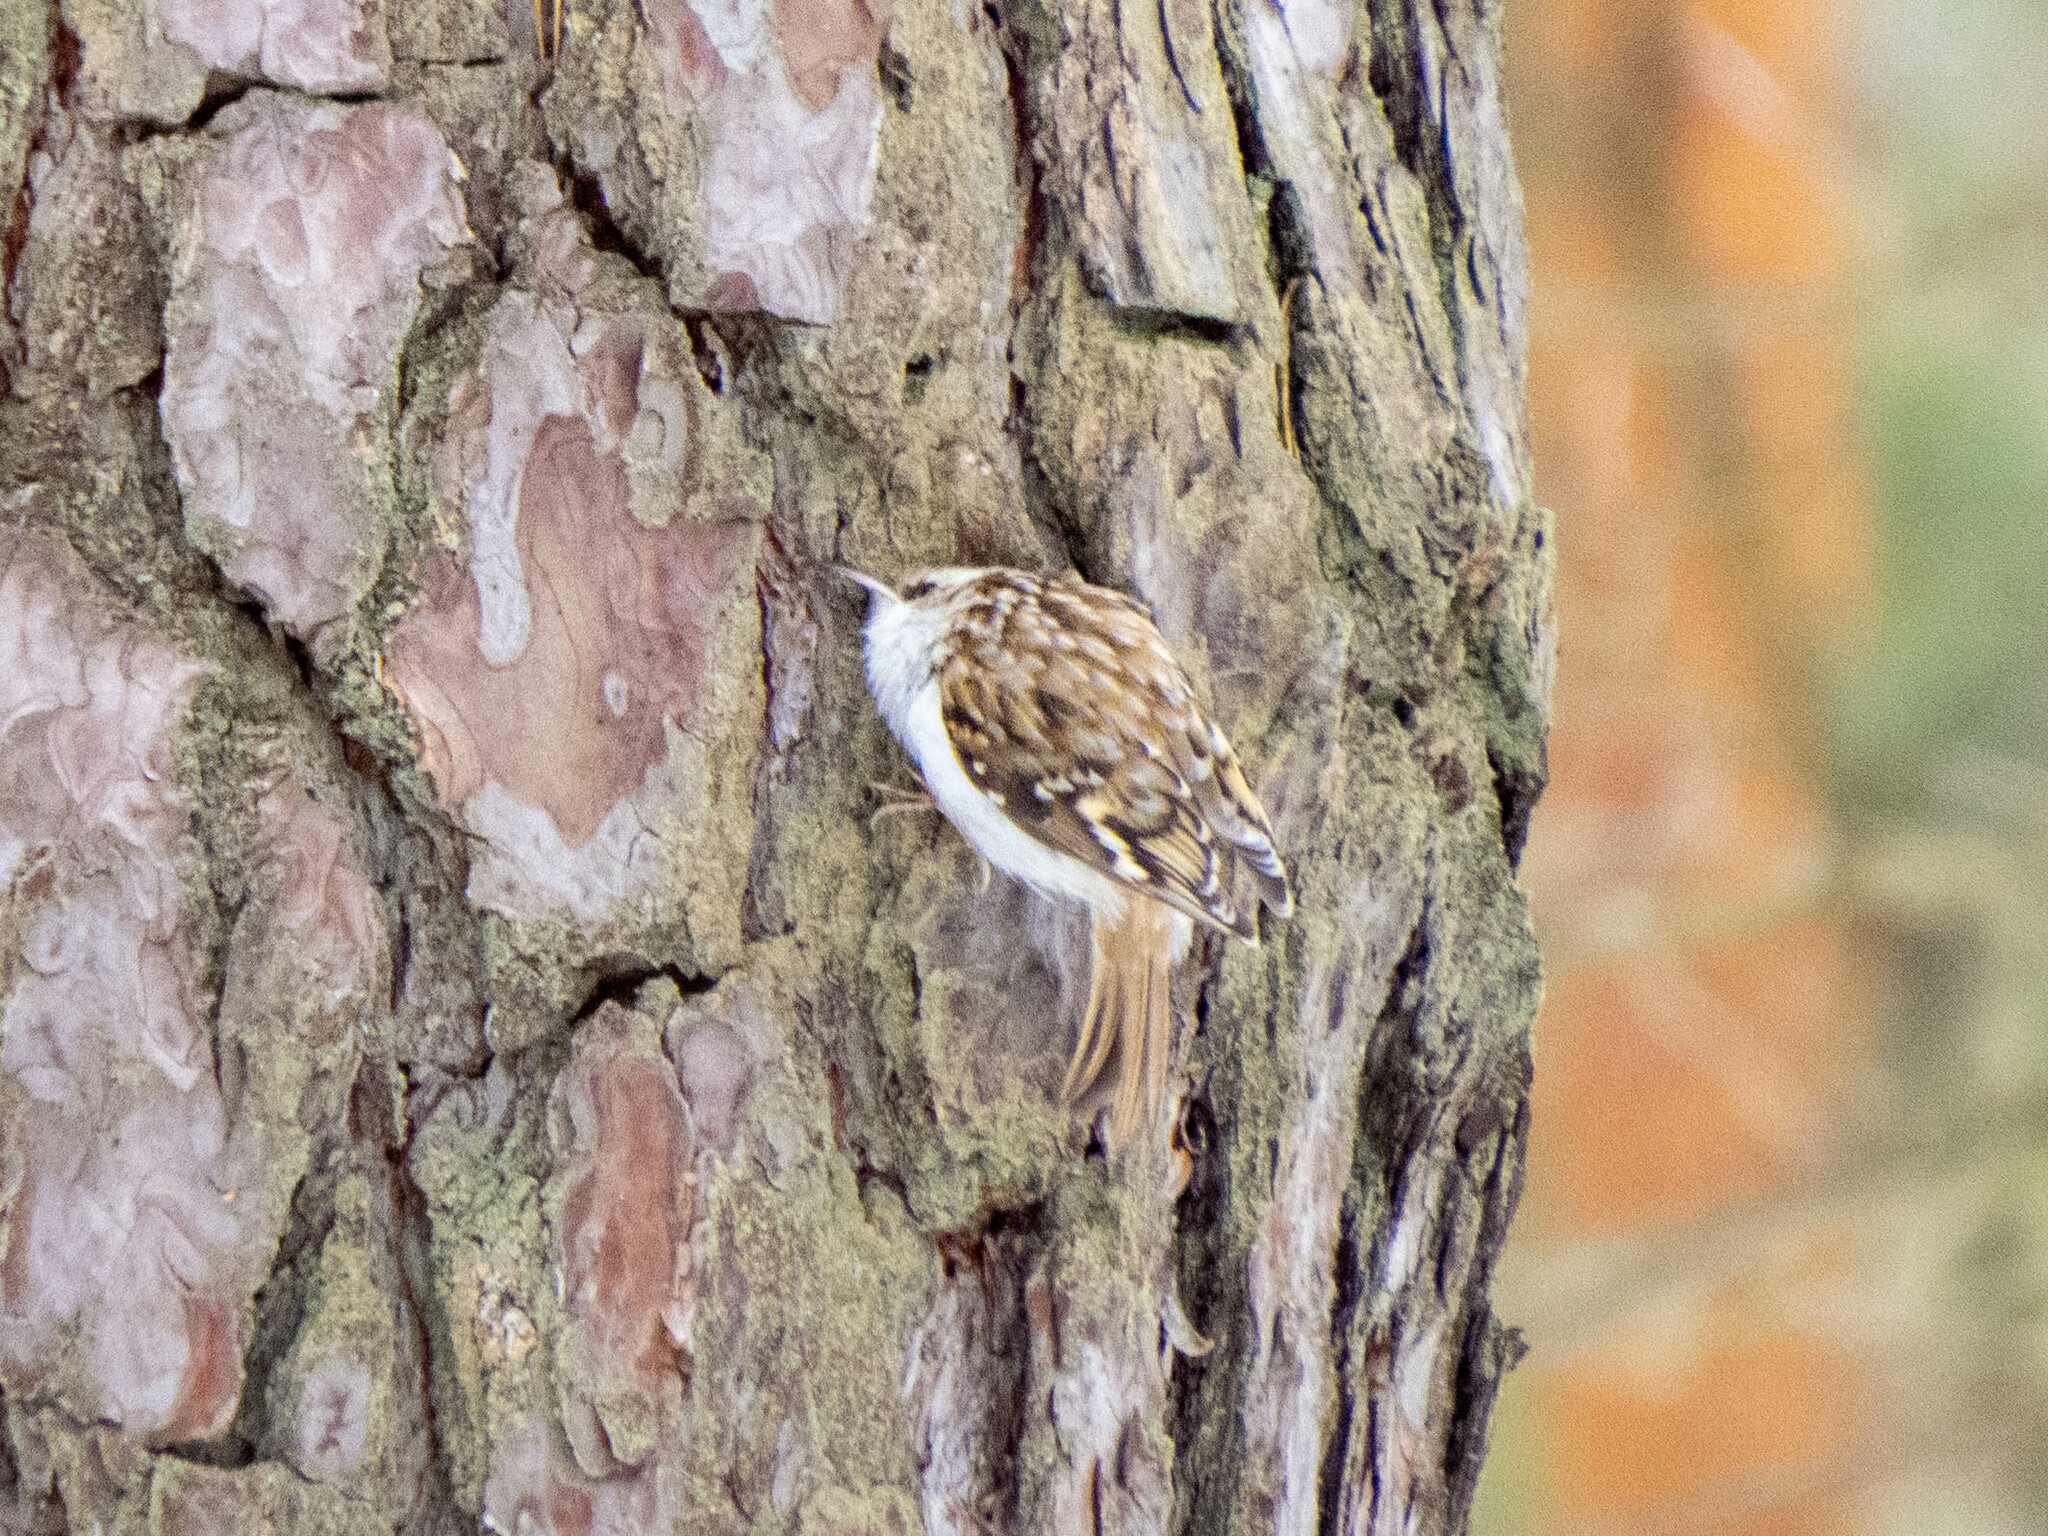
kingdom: Animalia
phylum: Chordata
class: Aves
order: Passeriformes
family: Certhiidae
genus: Certhia
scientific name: Certhia familiaris
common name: Eurasian treecreeper
